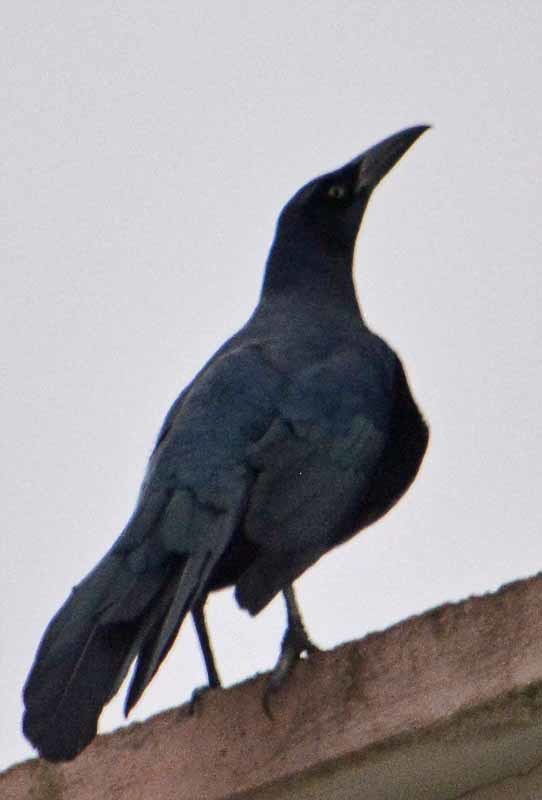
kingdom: Animalia
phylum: Chordata
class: Aves
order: Passeriformes
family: Icteridae
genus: Quiscalus
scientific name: Quiscalus mexicanus
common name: Great-tailed grackle
